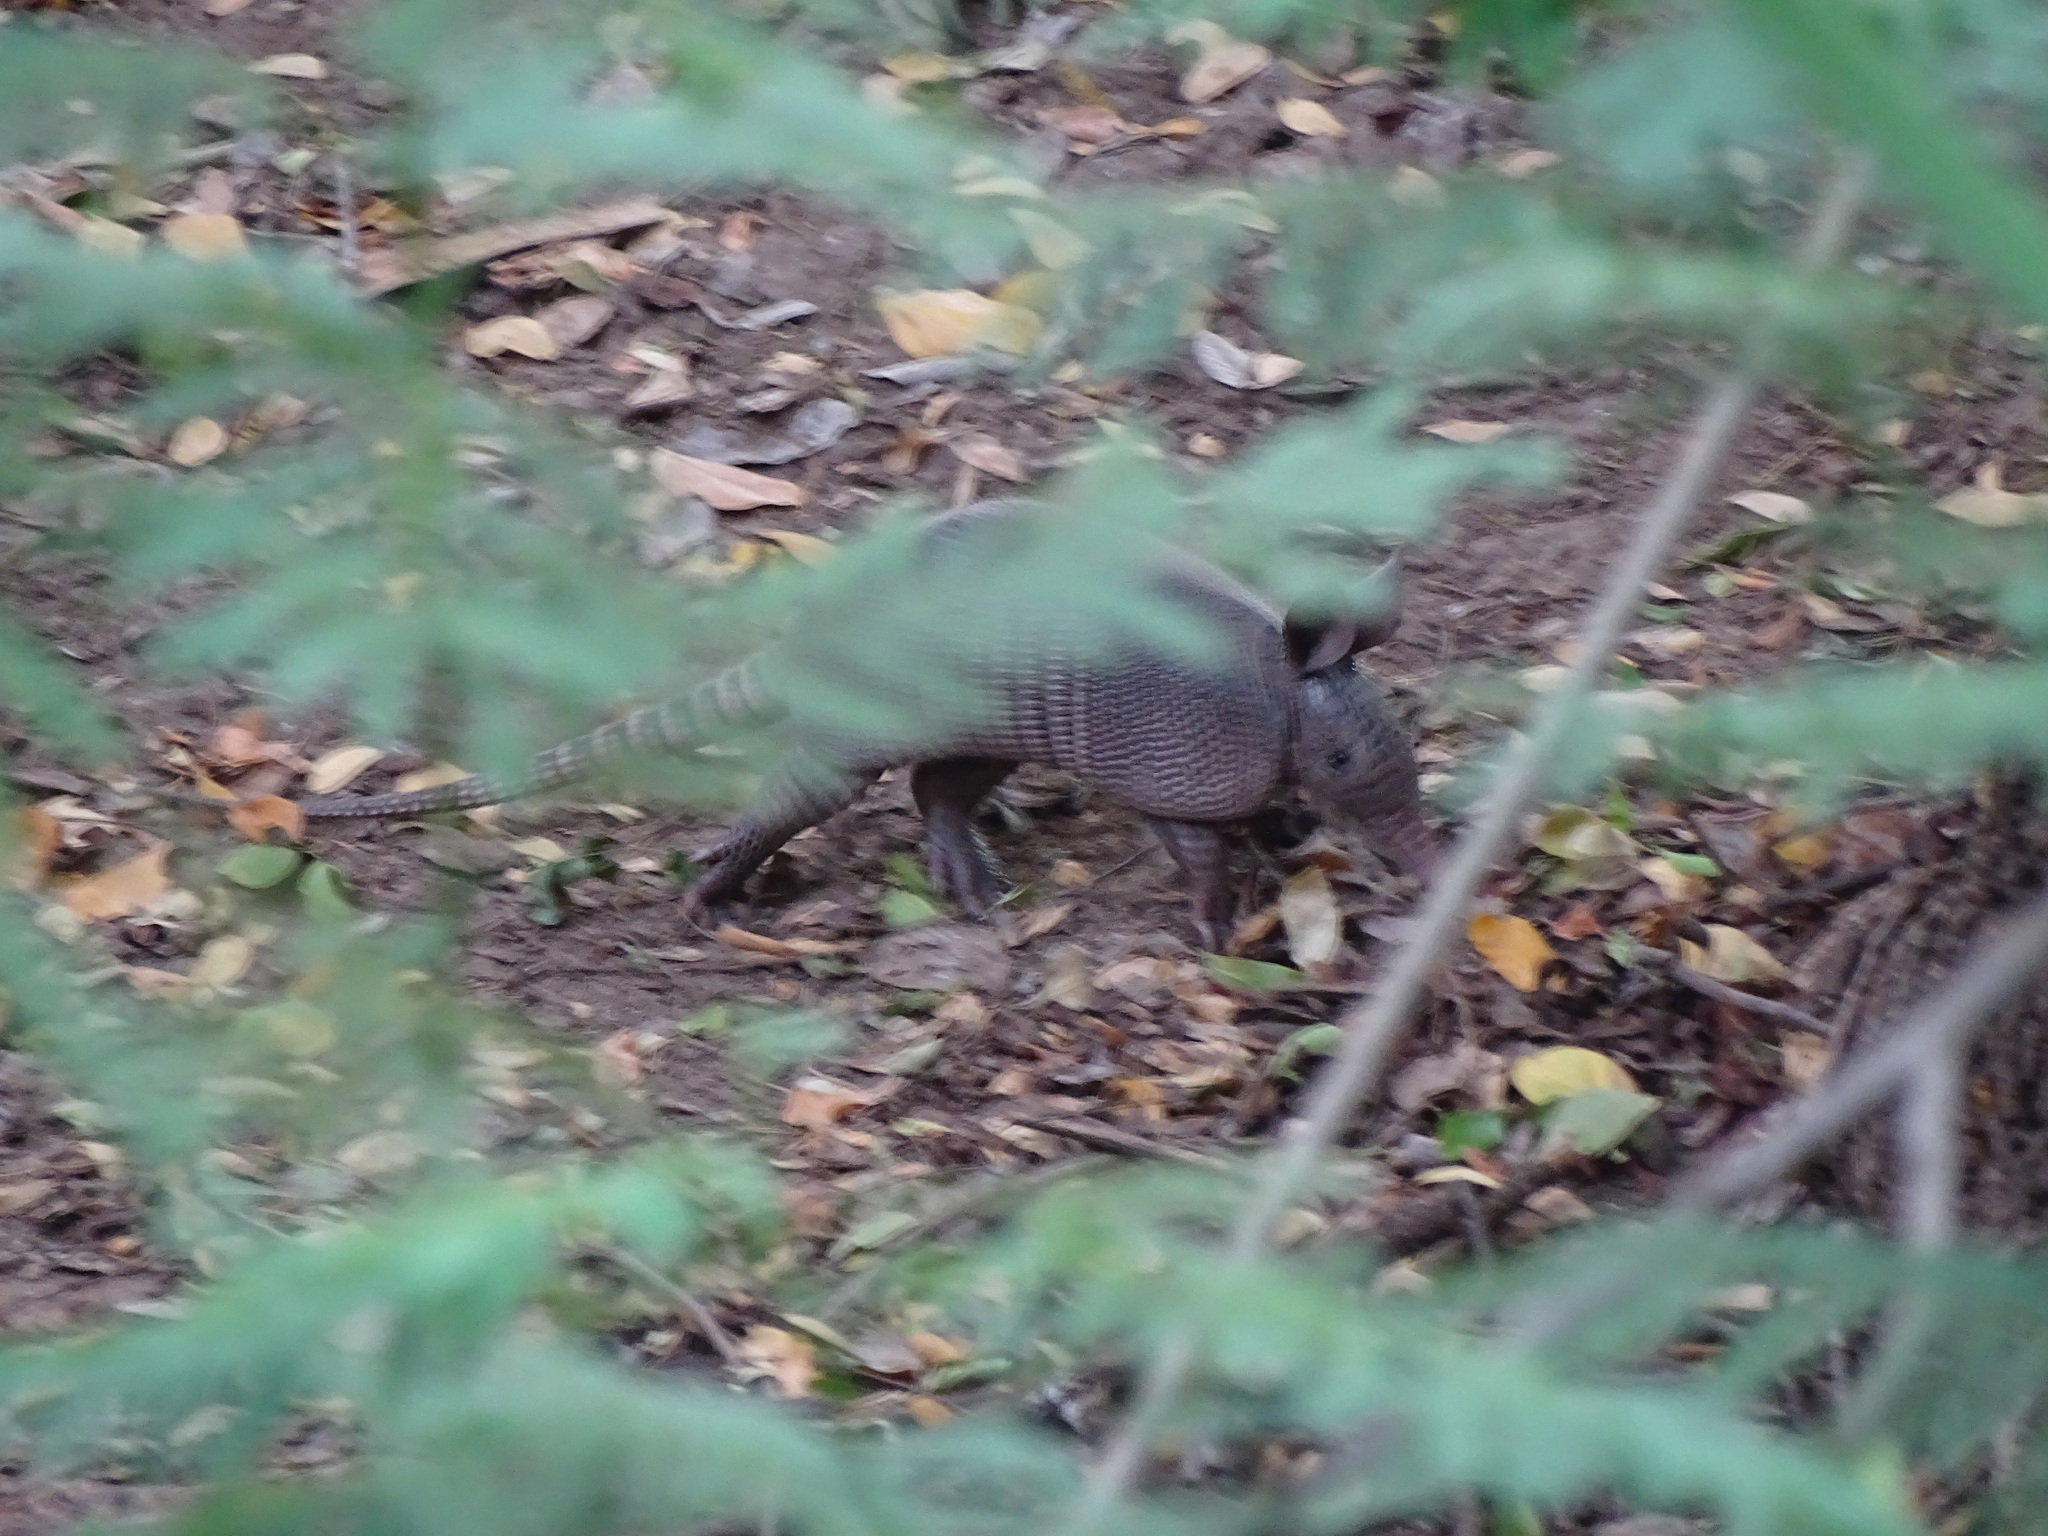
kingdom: Animalia
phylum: Chordata
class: Mammalia
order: Cingulata
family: Dasypodidae
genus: Dasypus
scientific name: Dasypus novemcinctus
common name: Nine-banded armadillo
